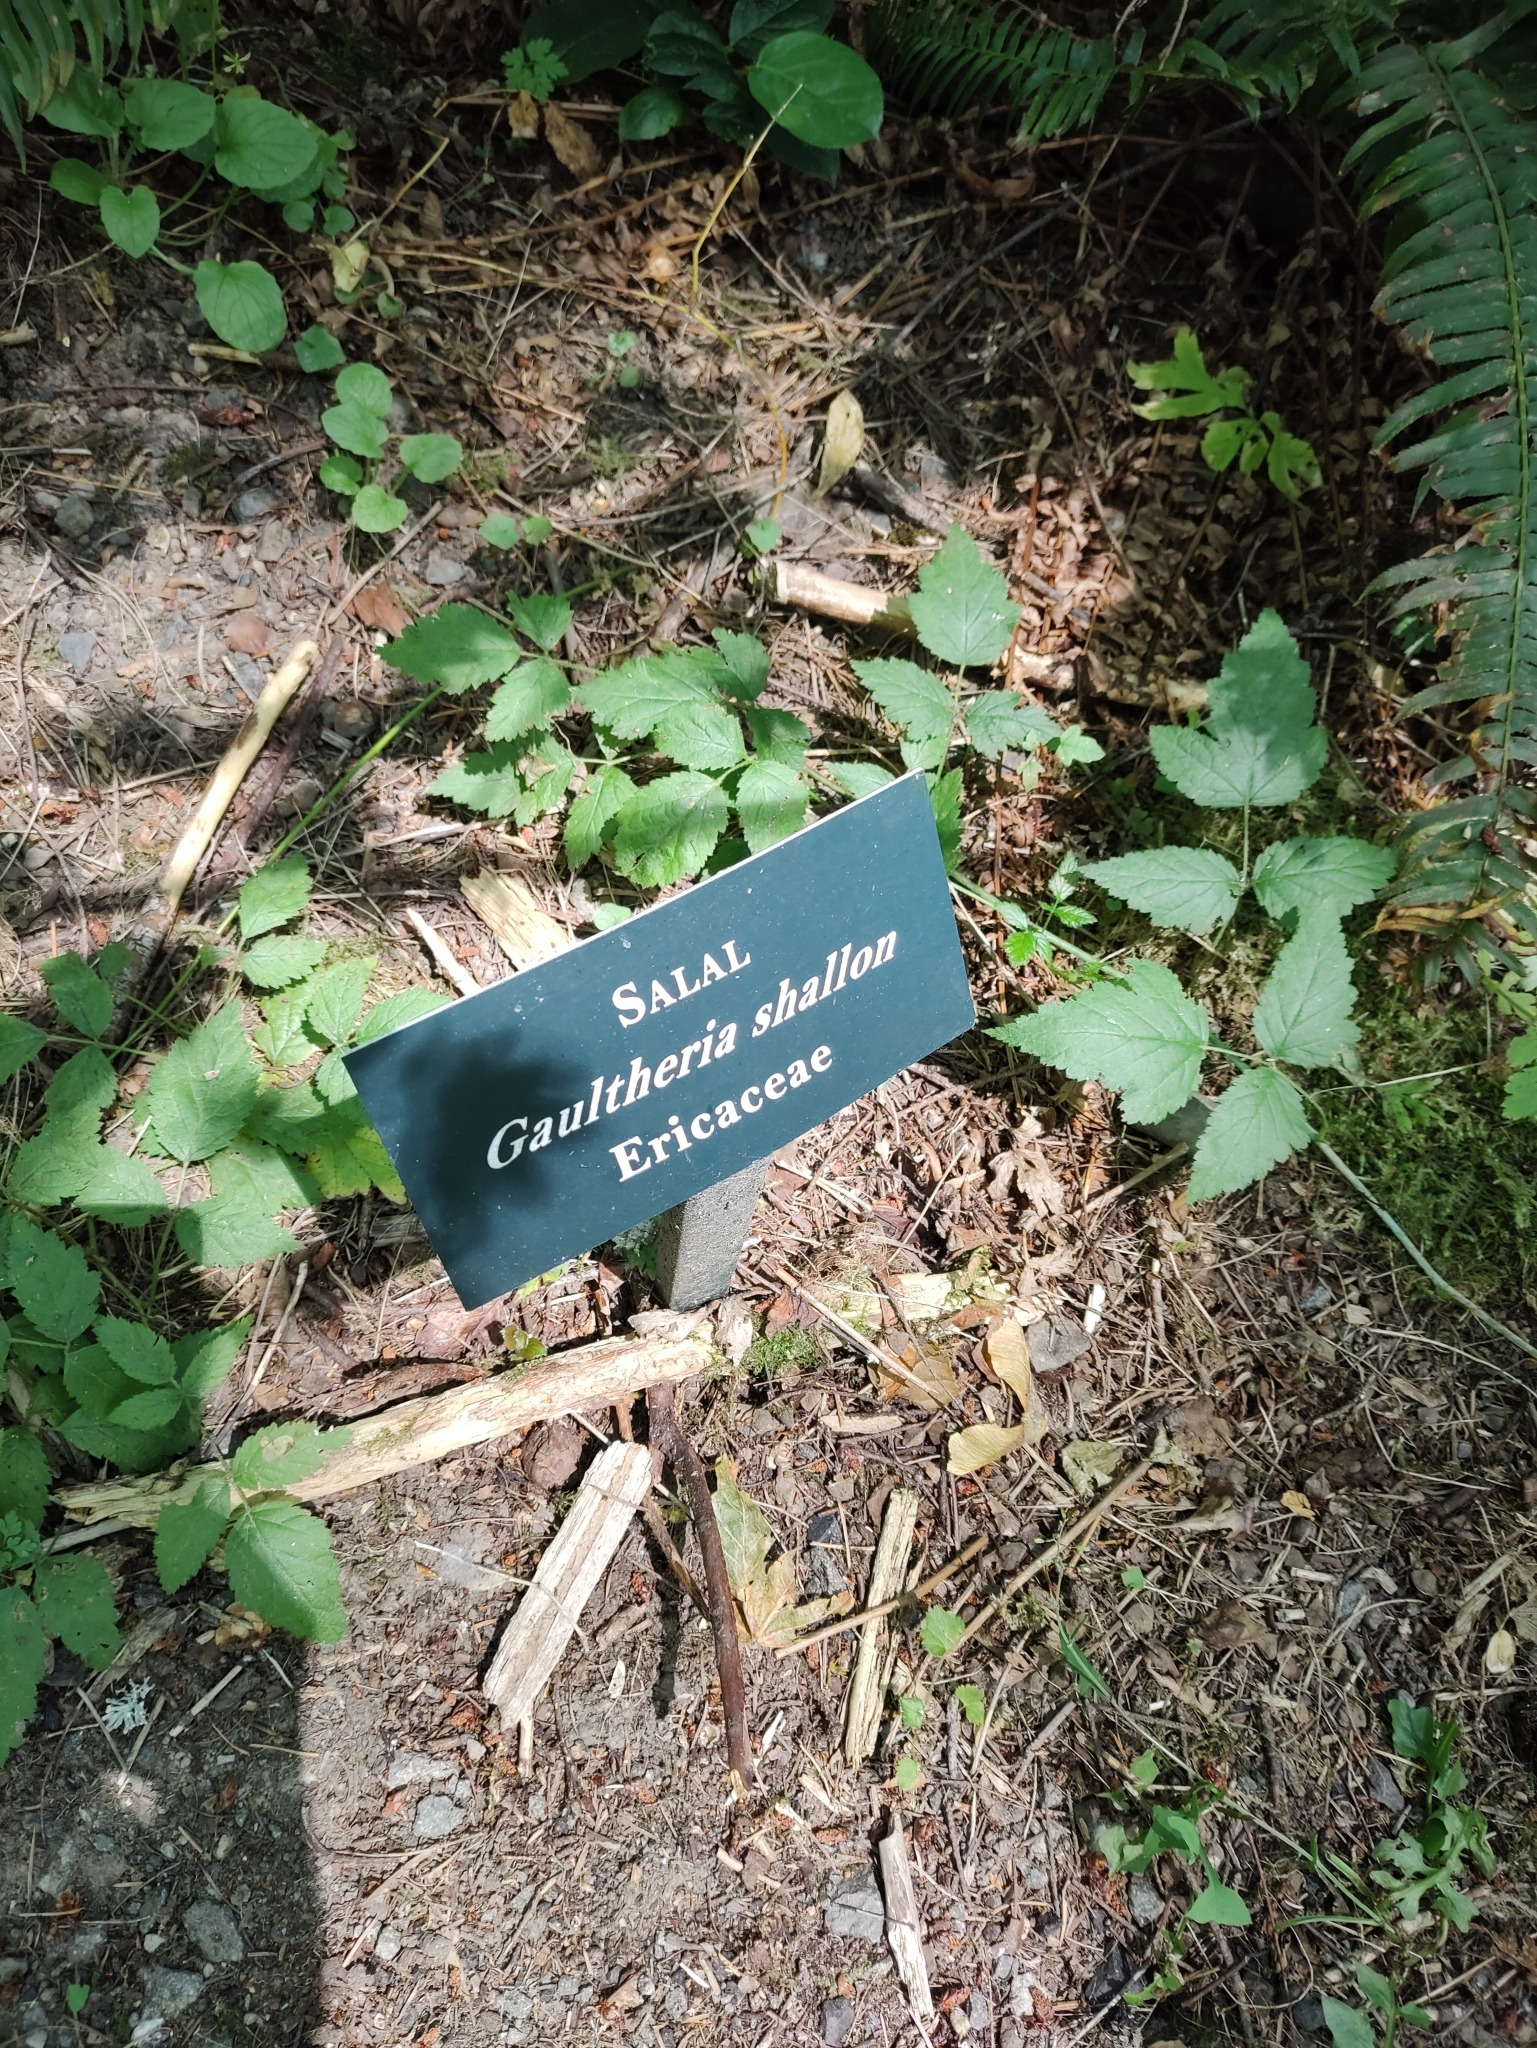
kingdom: Plantae
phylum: Tracheophyta
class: Magnoliopsida
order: Ericales
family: Ericaceae
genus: Gaultheria
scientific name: Gaultheria shallon
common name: Shallon
